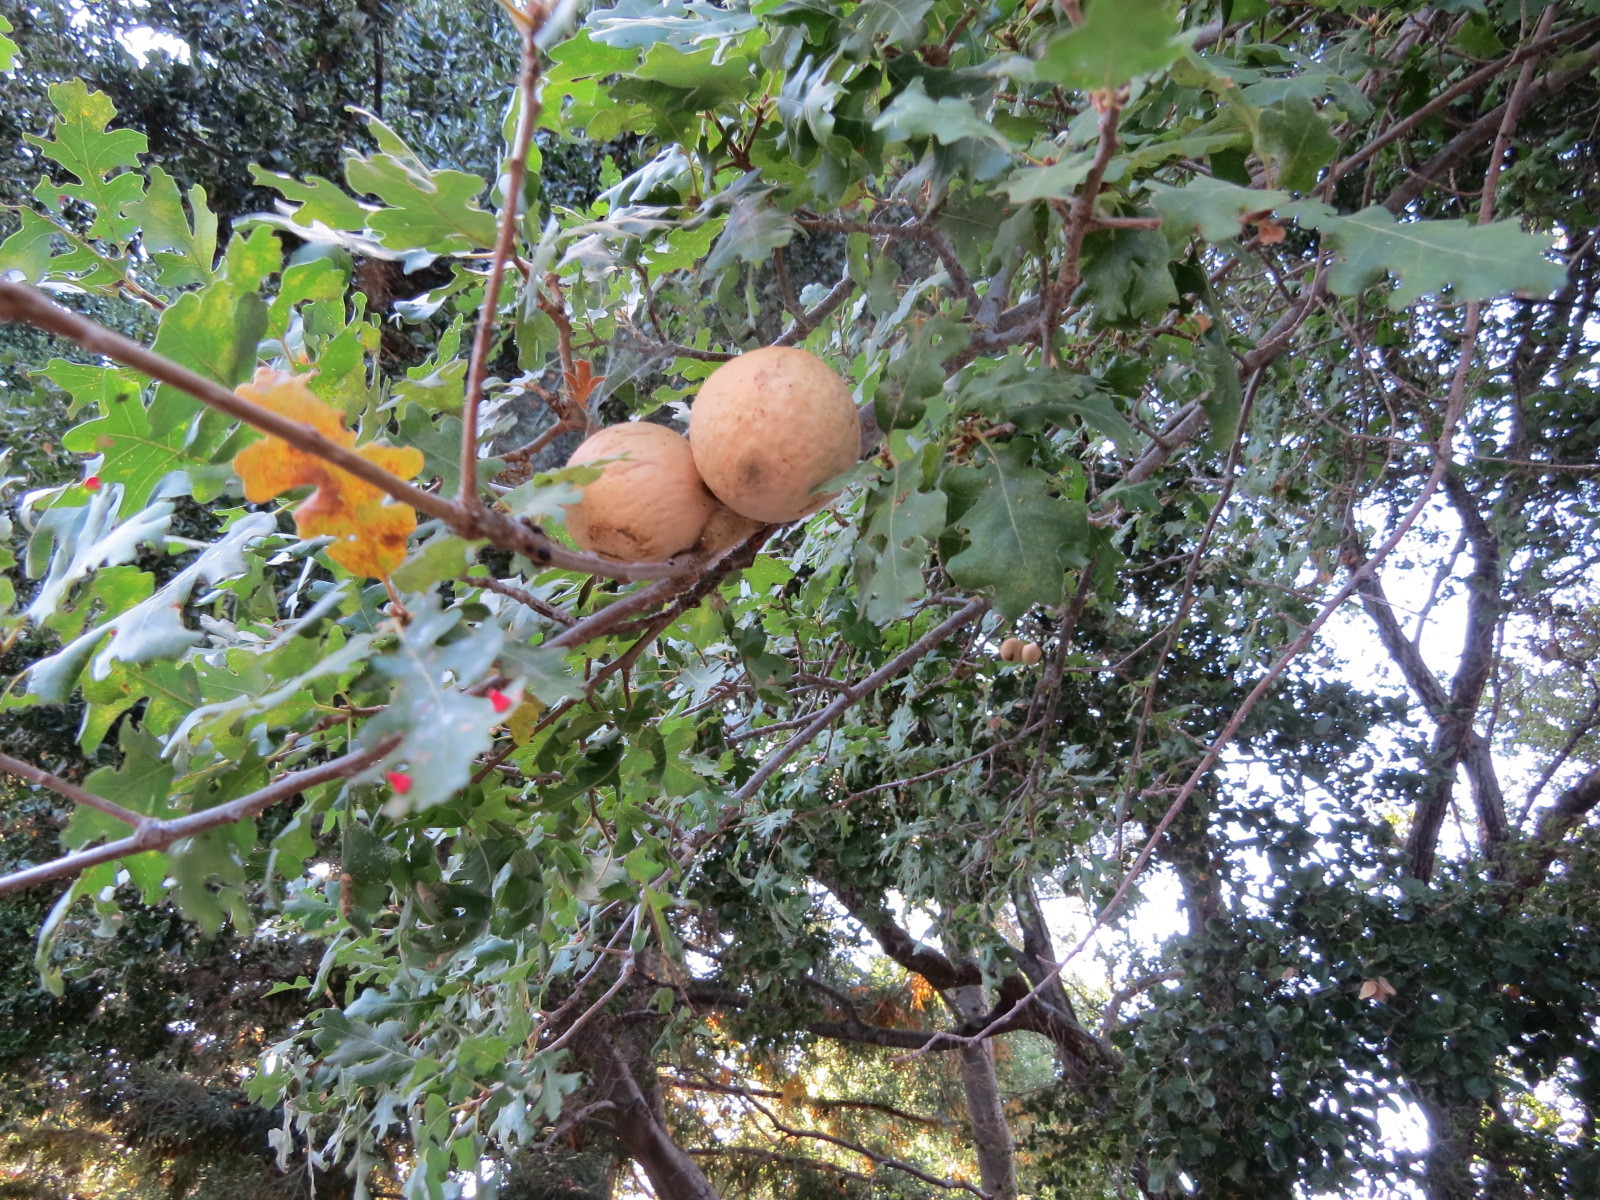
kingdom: Animalia
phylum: Arthropoda
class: Insecta
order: Hymenoptera
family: Cynipidae
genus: Andricus
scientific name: Andricus quercuscalifornicus
